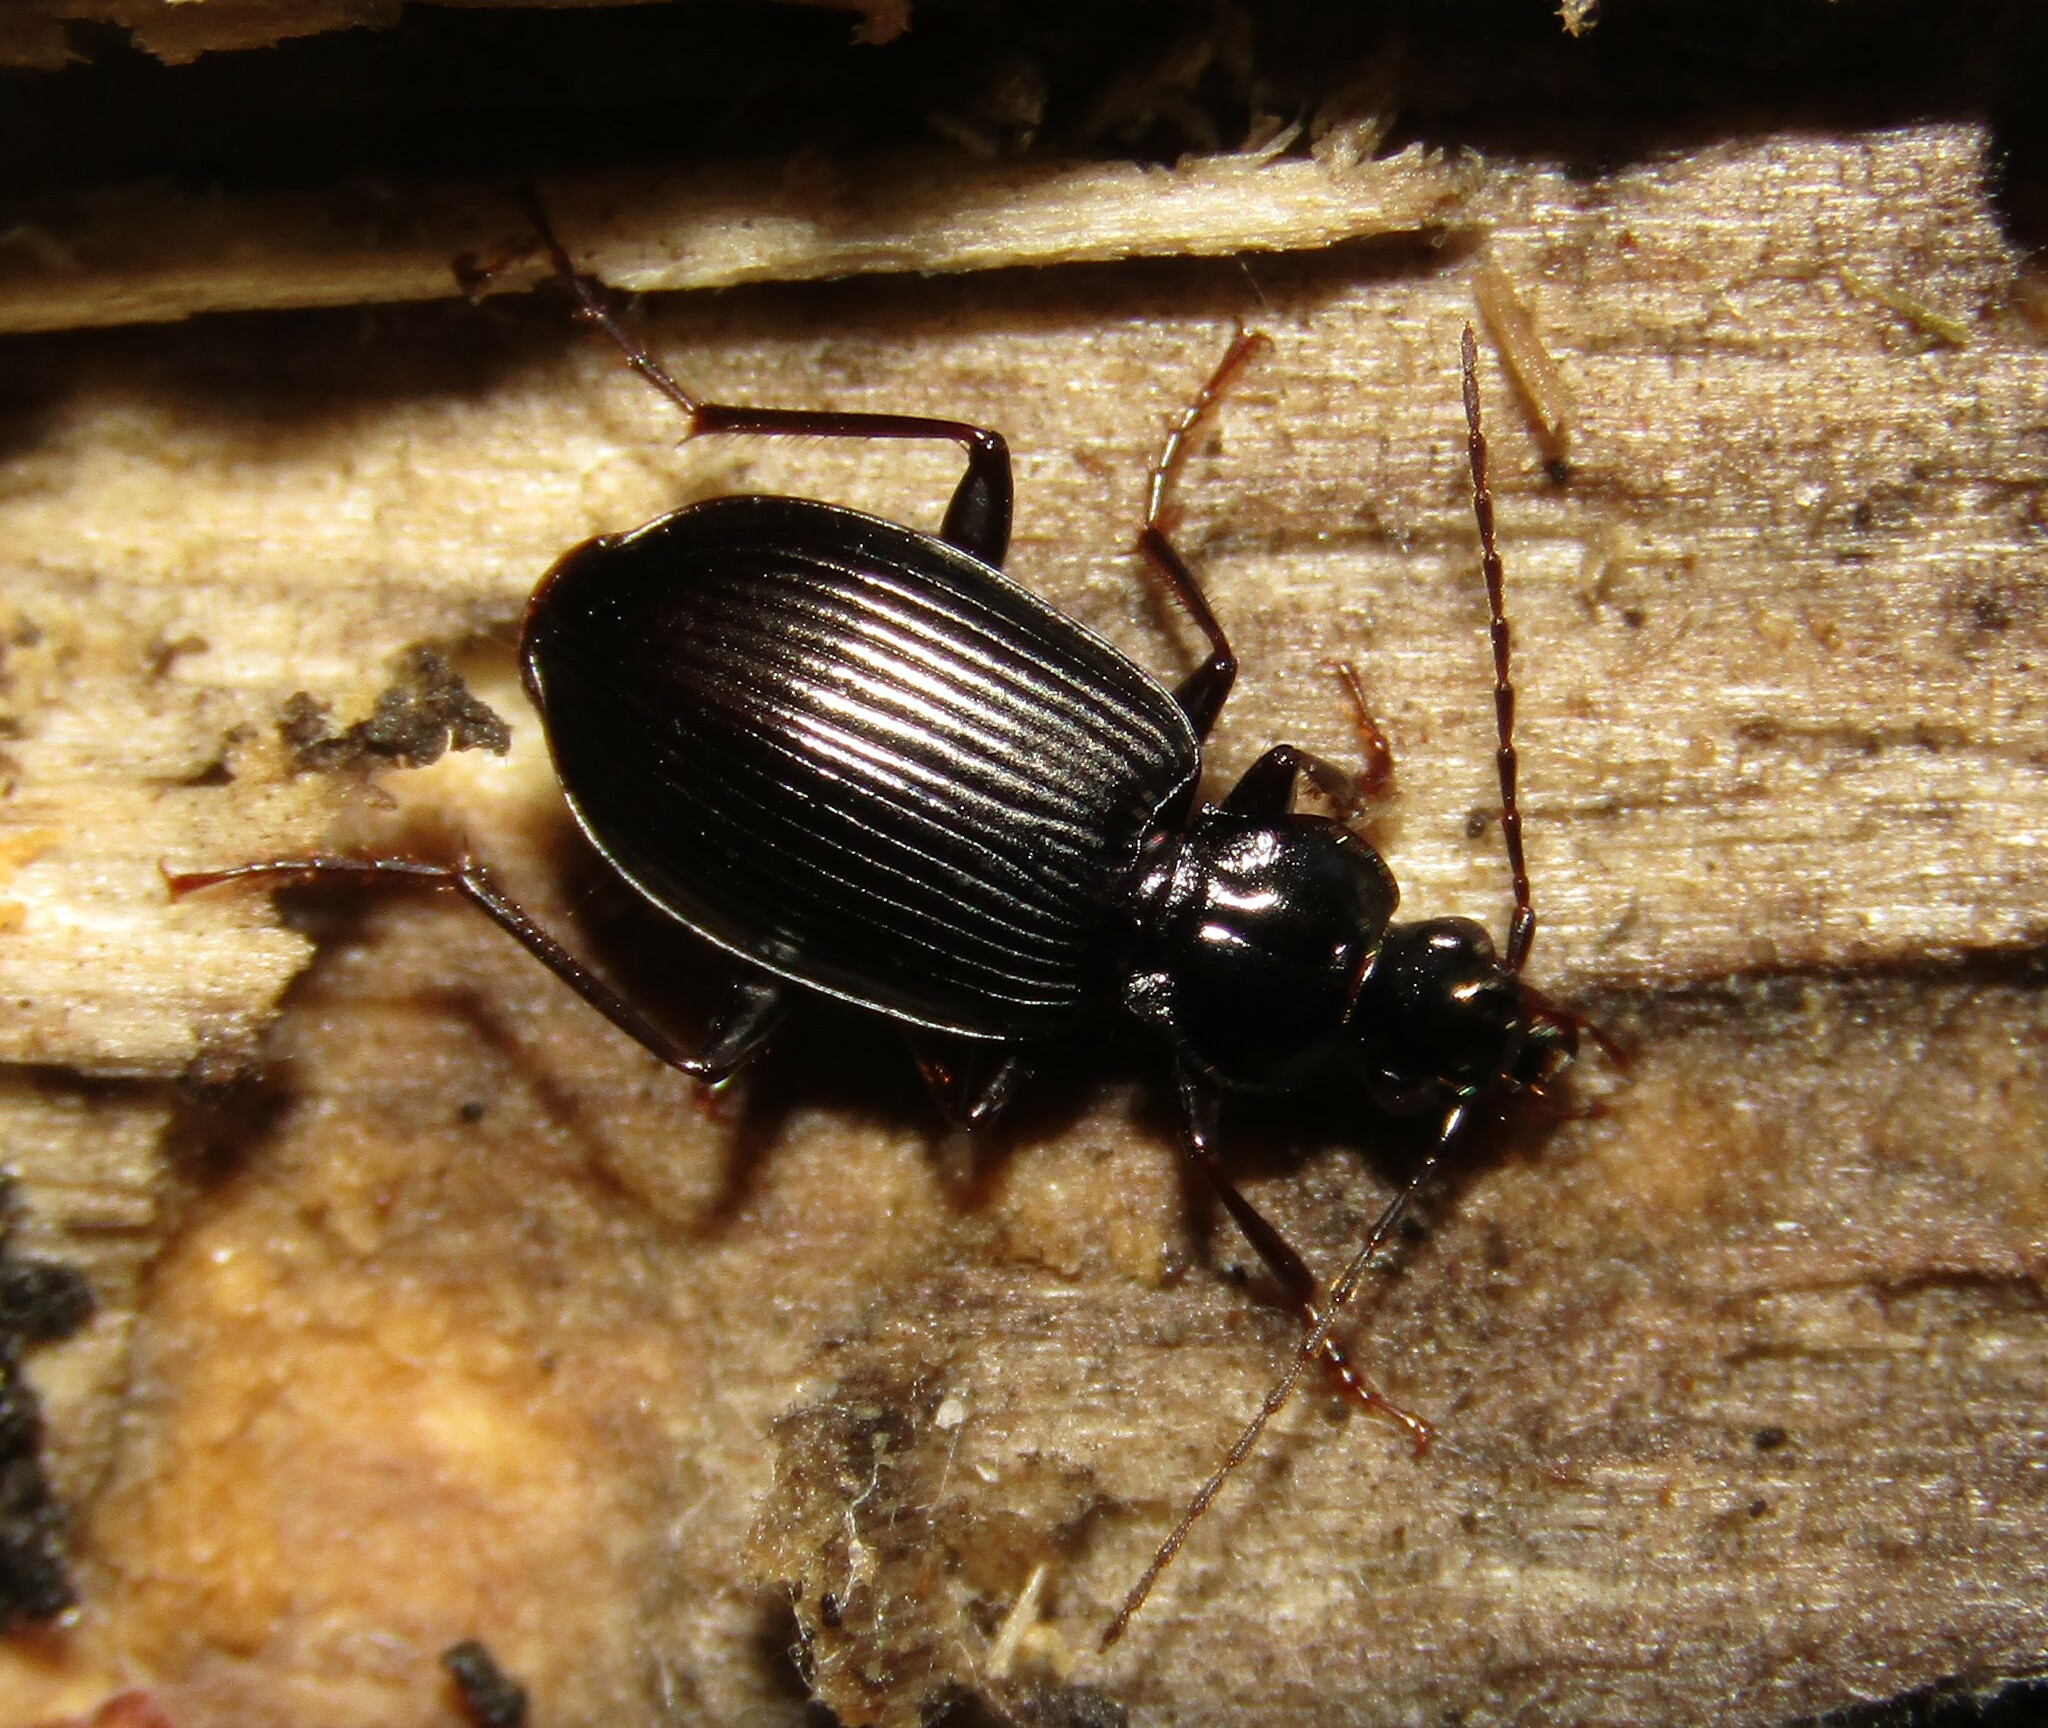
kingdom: Animalia
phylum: Arthropoda
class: Insecta
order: Coleoptera
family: Carabidae
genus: Platynus
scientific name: Platynus assimilis
